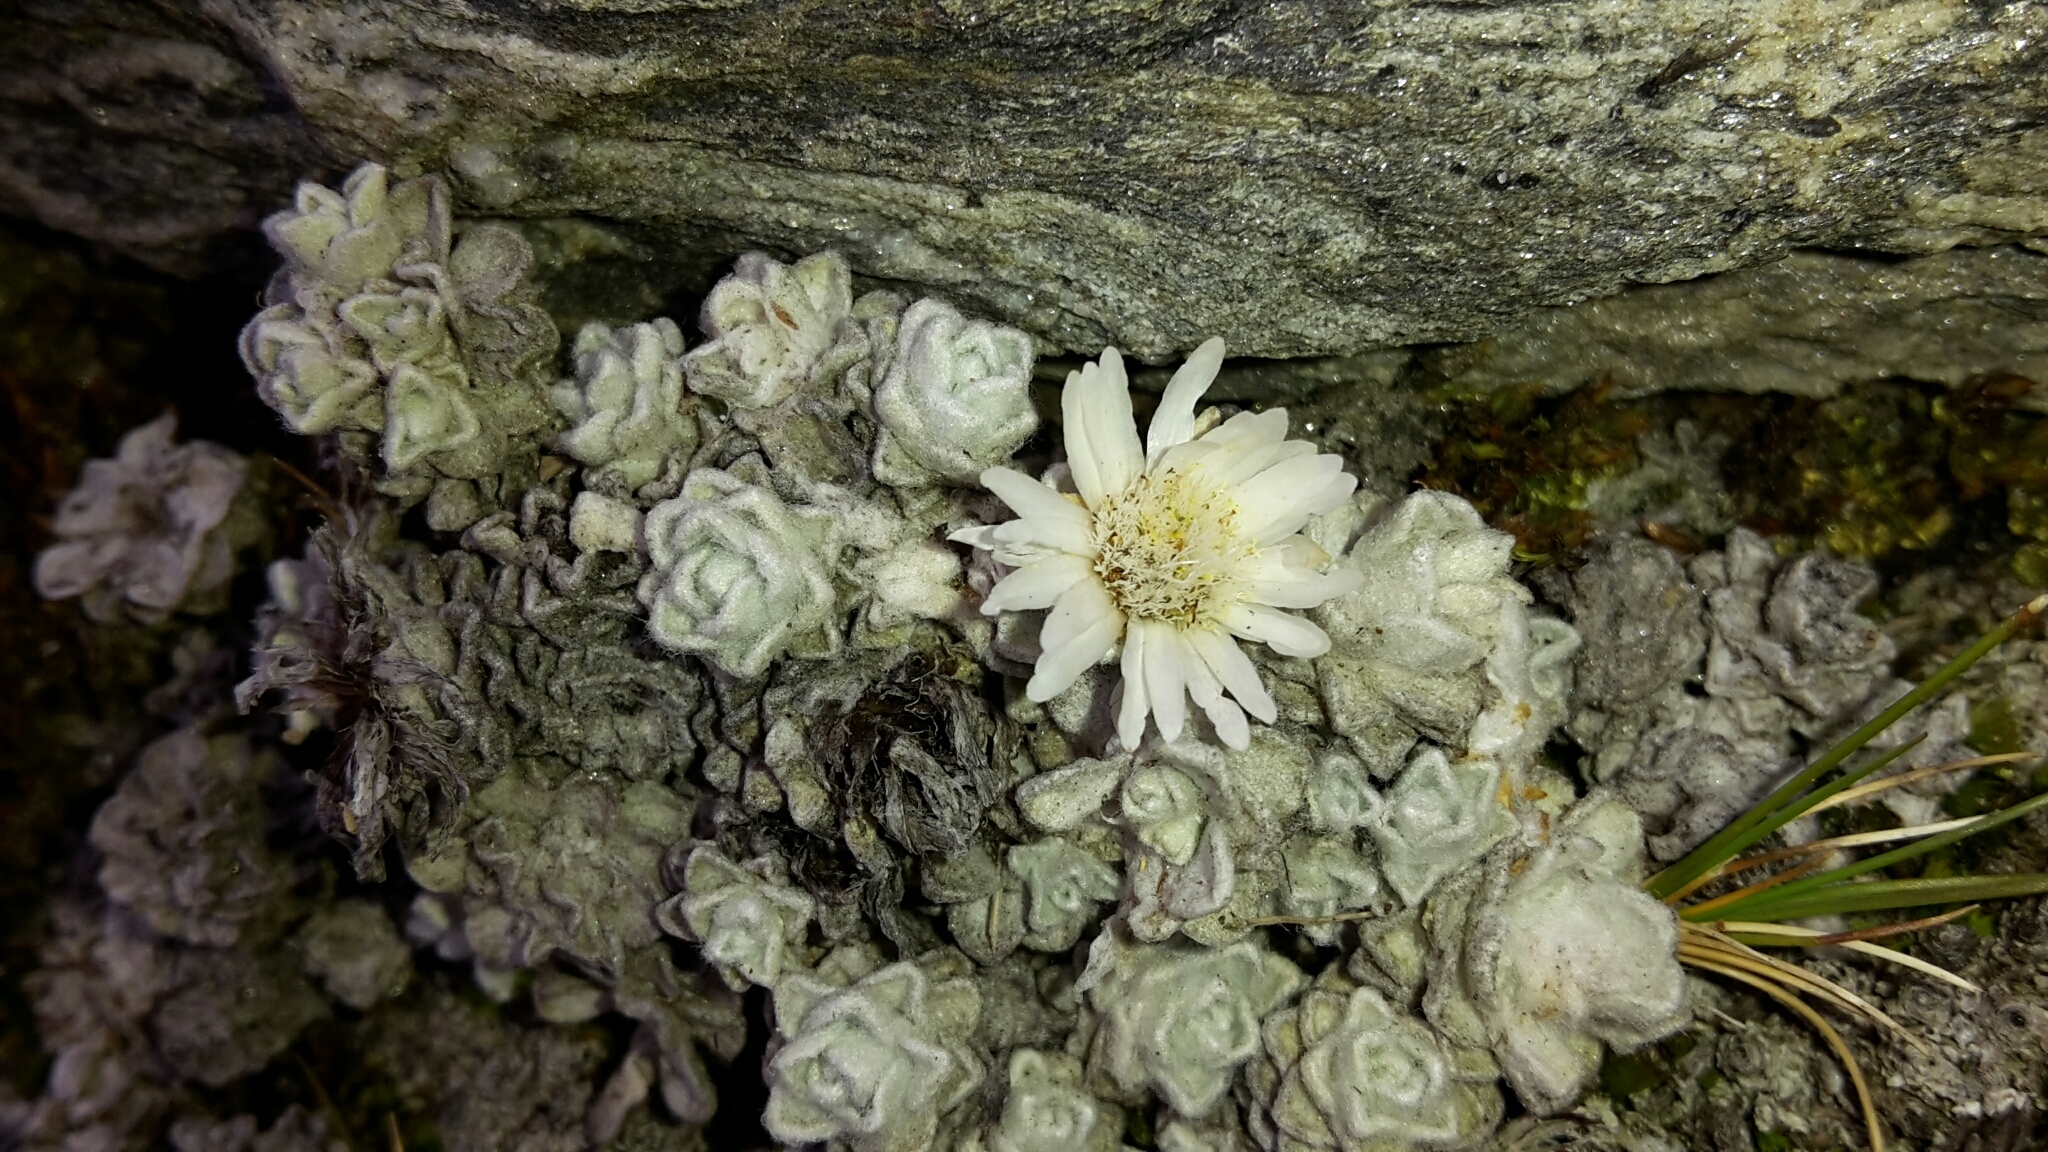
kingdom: Plantae
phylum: Tracheophyta
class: Magnoliopsida
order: Asterales
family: Asteraceae
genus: Raoulia
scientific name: Raoulia youngii
